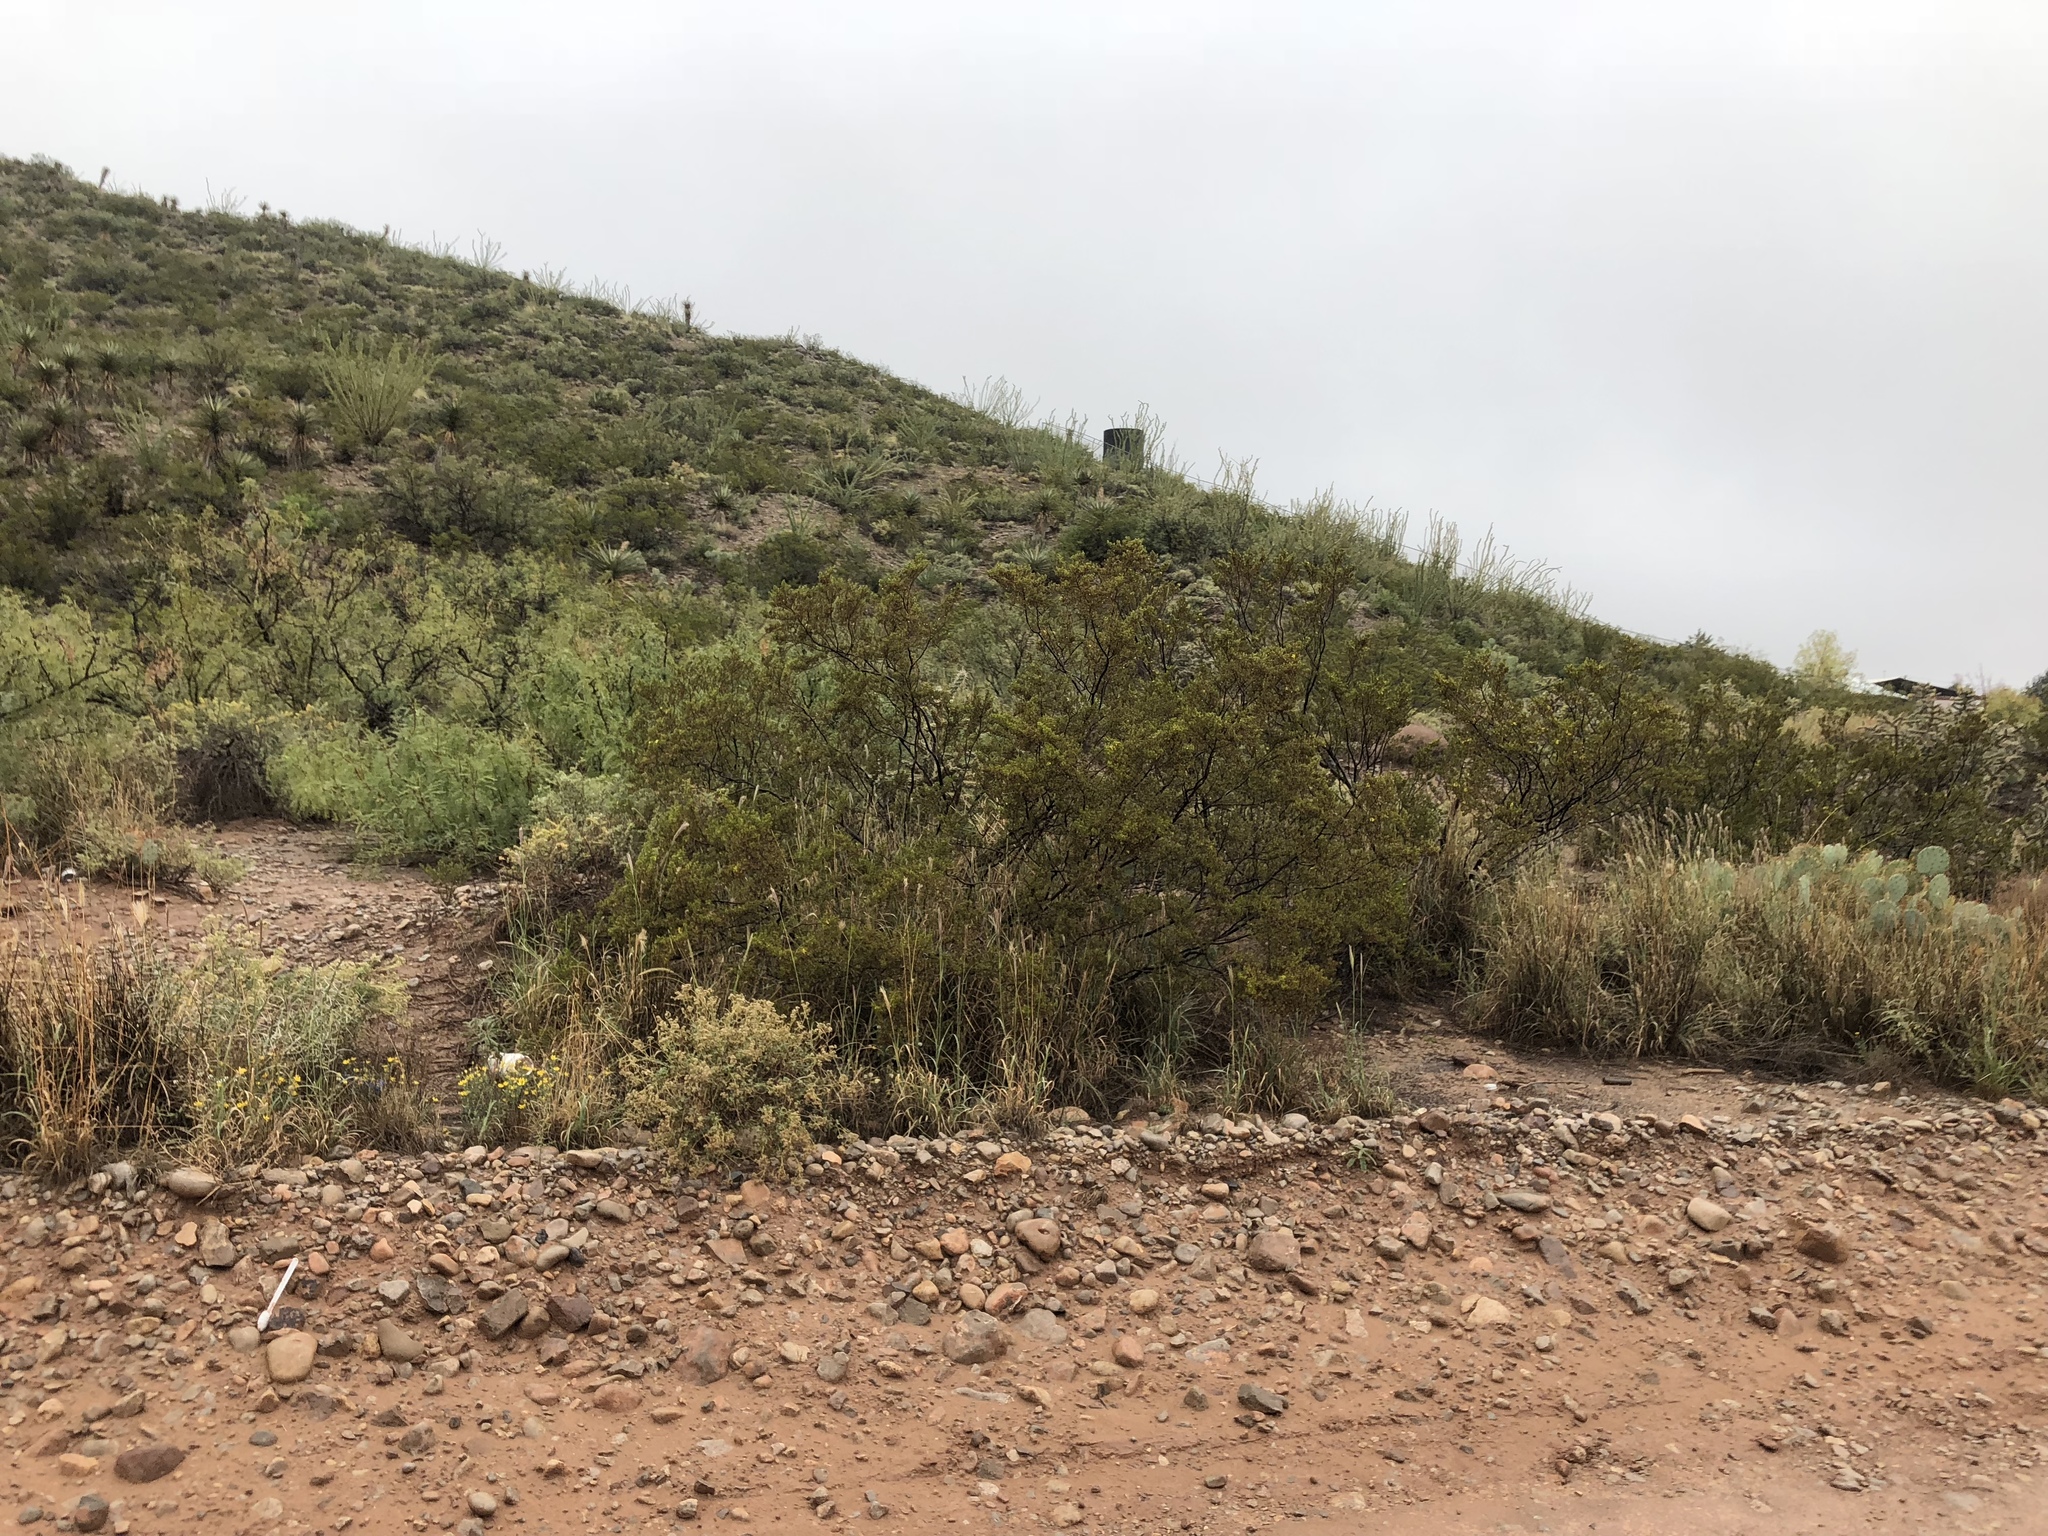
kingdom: Plantae
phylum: Tracheophyta
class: Magnoliopsida
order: Zygophyllales
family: Zygophyllaceae
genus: Larrea
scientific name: Larrea tridentata
